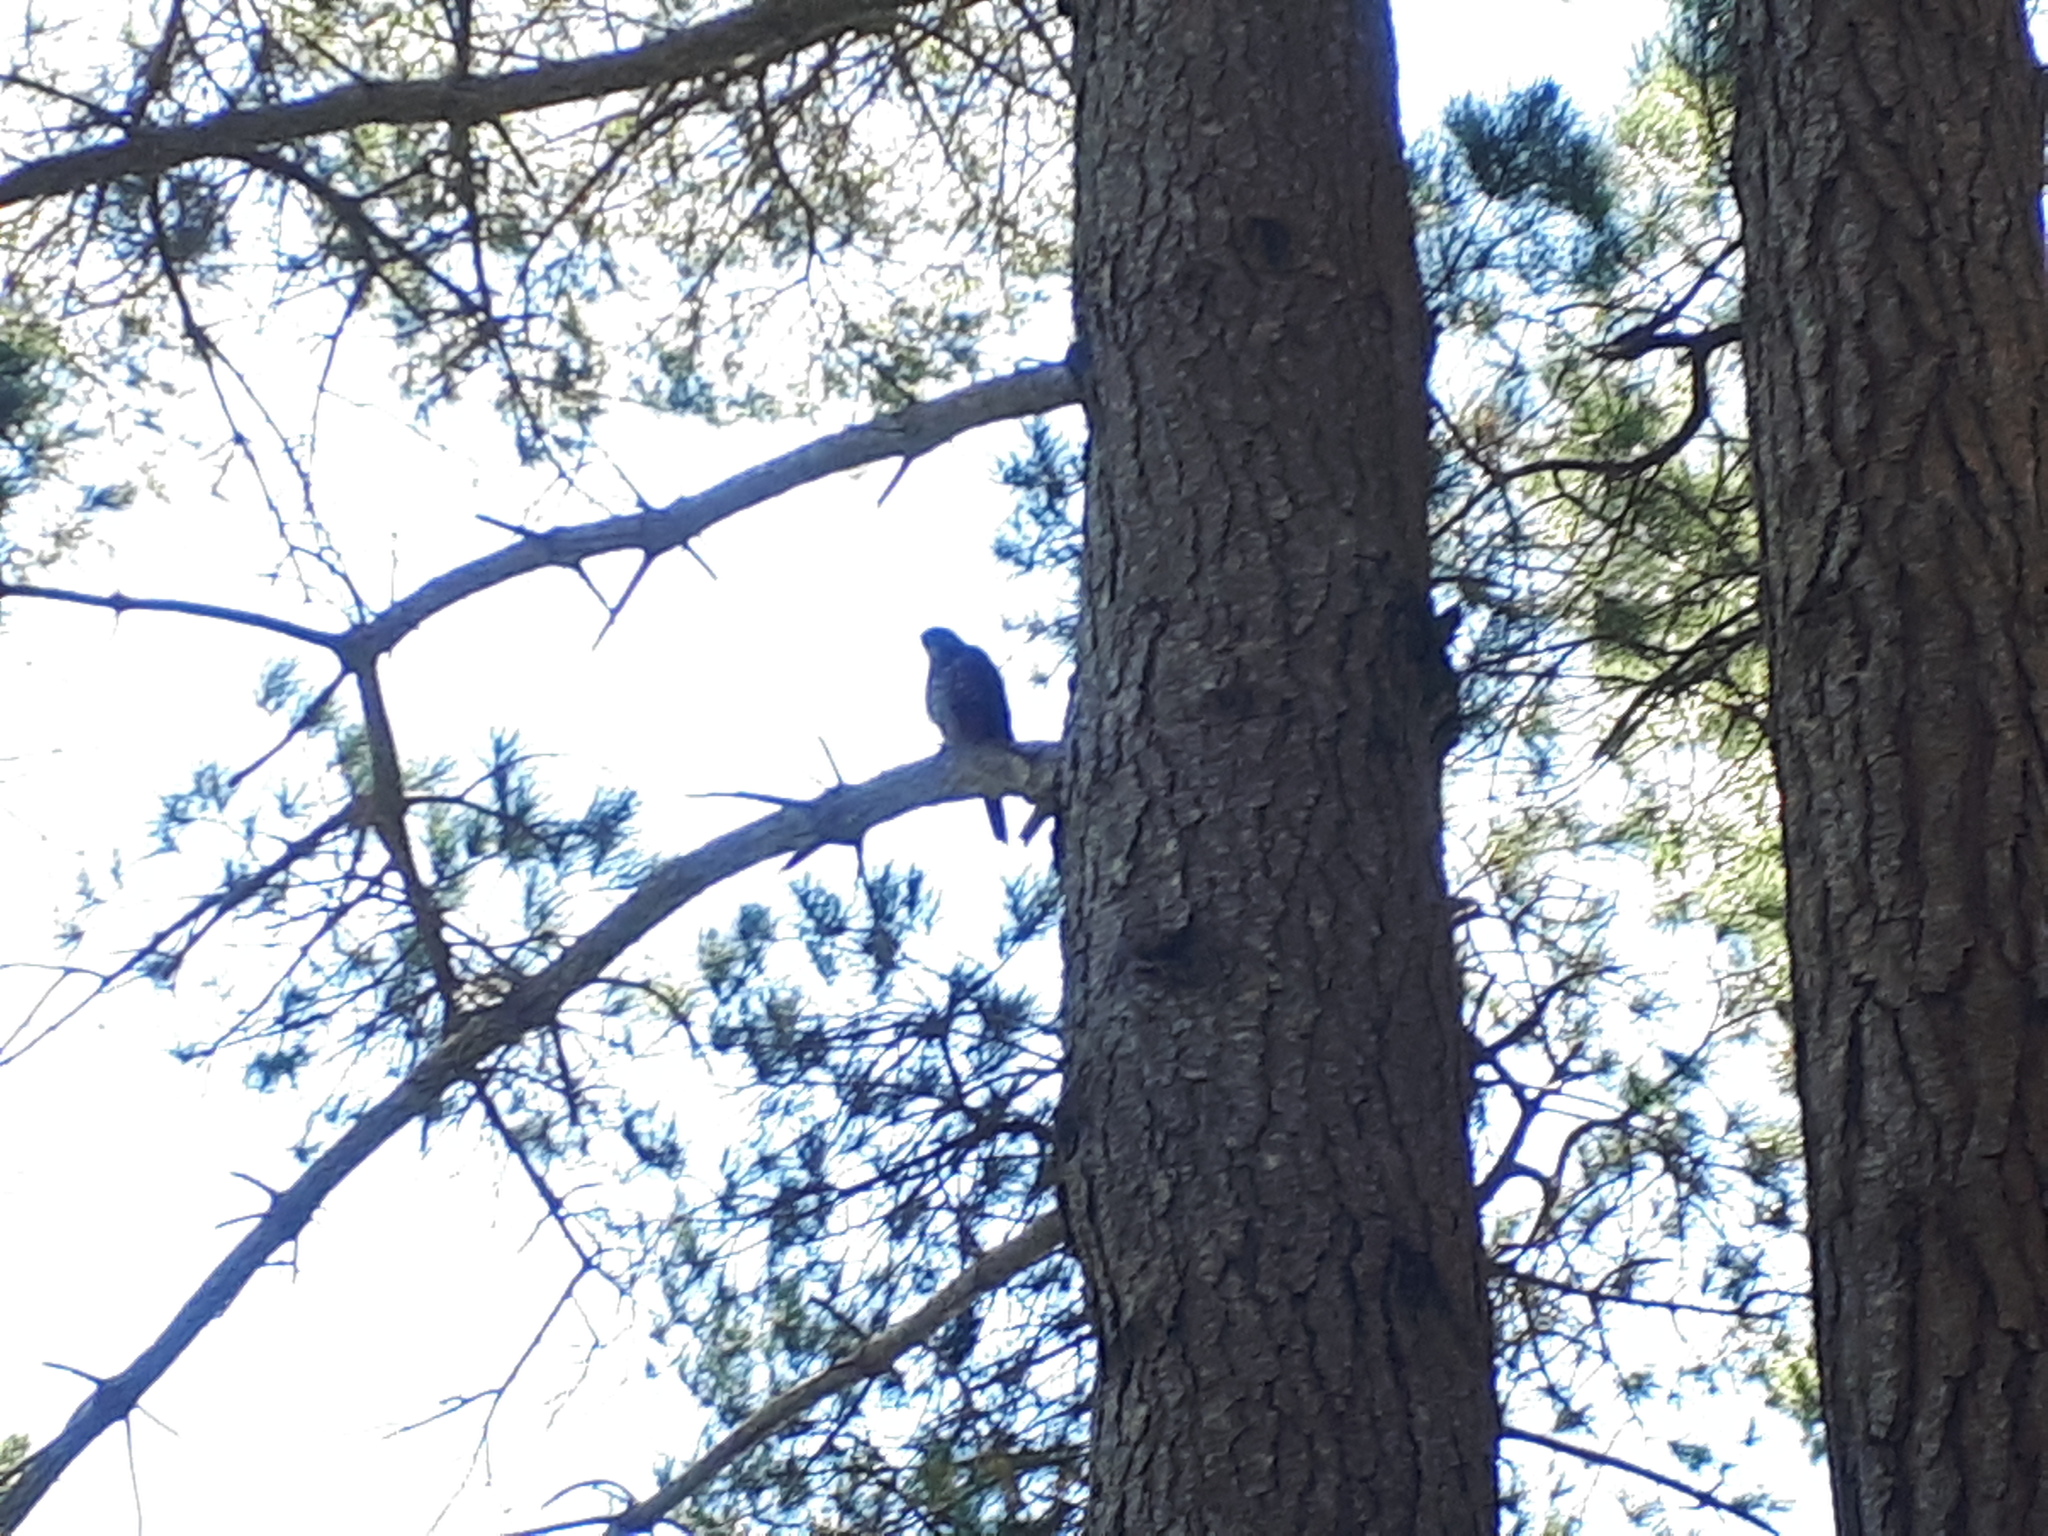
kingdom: Animalia
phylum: Chordata
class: Aves
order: Falconiformes
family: Falconidae
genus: Falco
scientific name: Falco novaeseelandiae
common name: New zealand falcon
